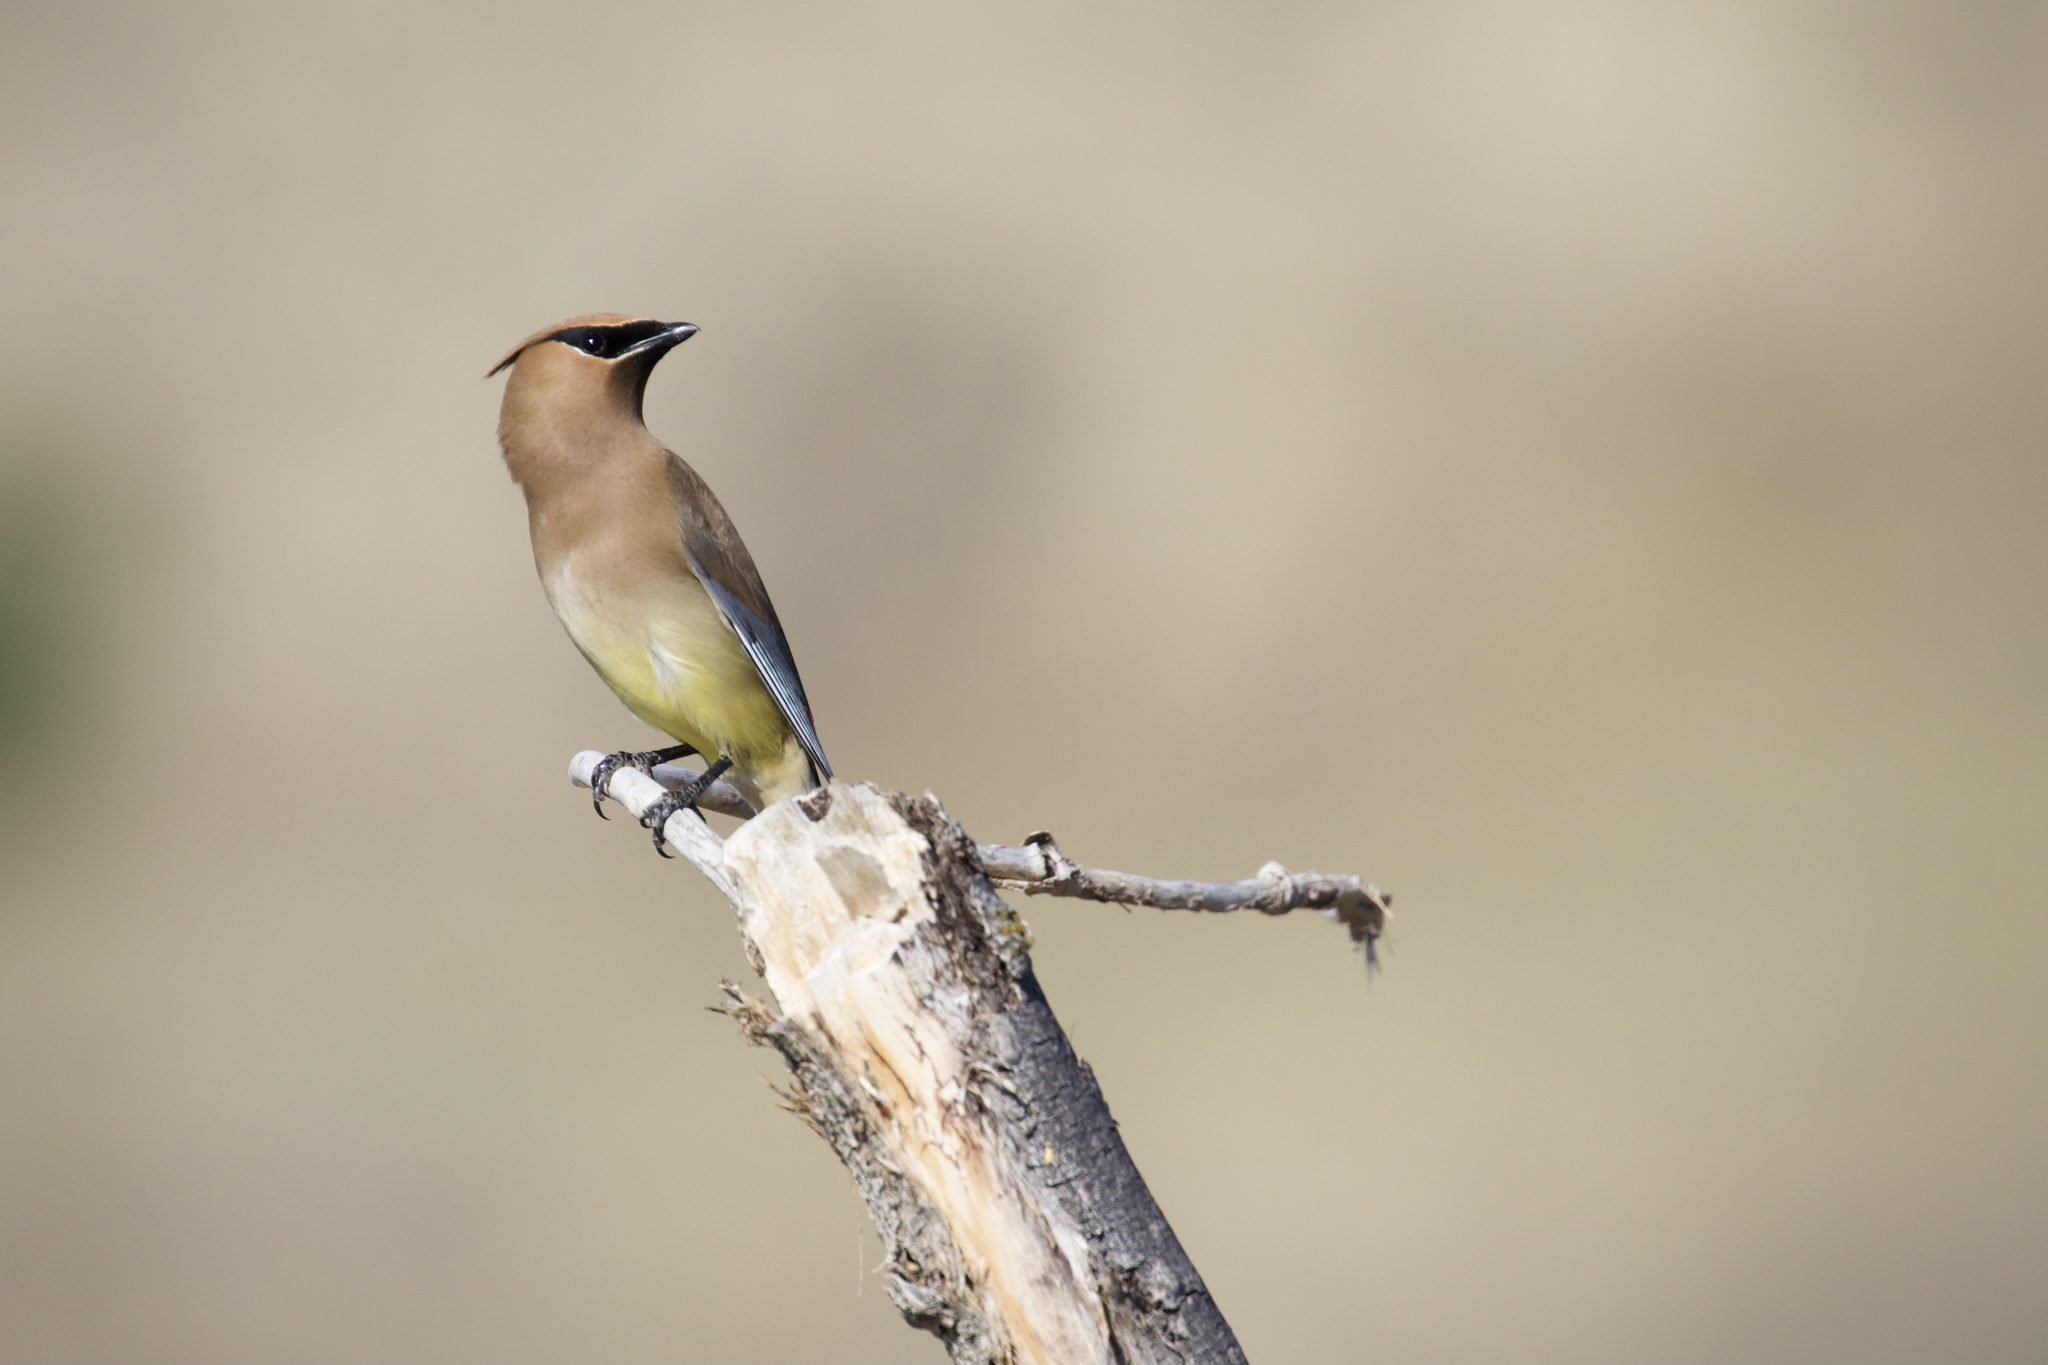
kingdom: Animalia
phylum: Chordata
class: Aves
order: Passeriformes
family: Bombycillidae
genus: Bombycilla
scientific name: Bombycilla cedrorum
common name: Cedar waxwing
